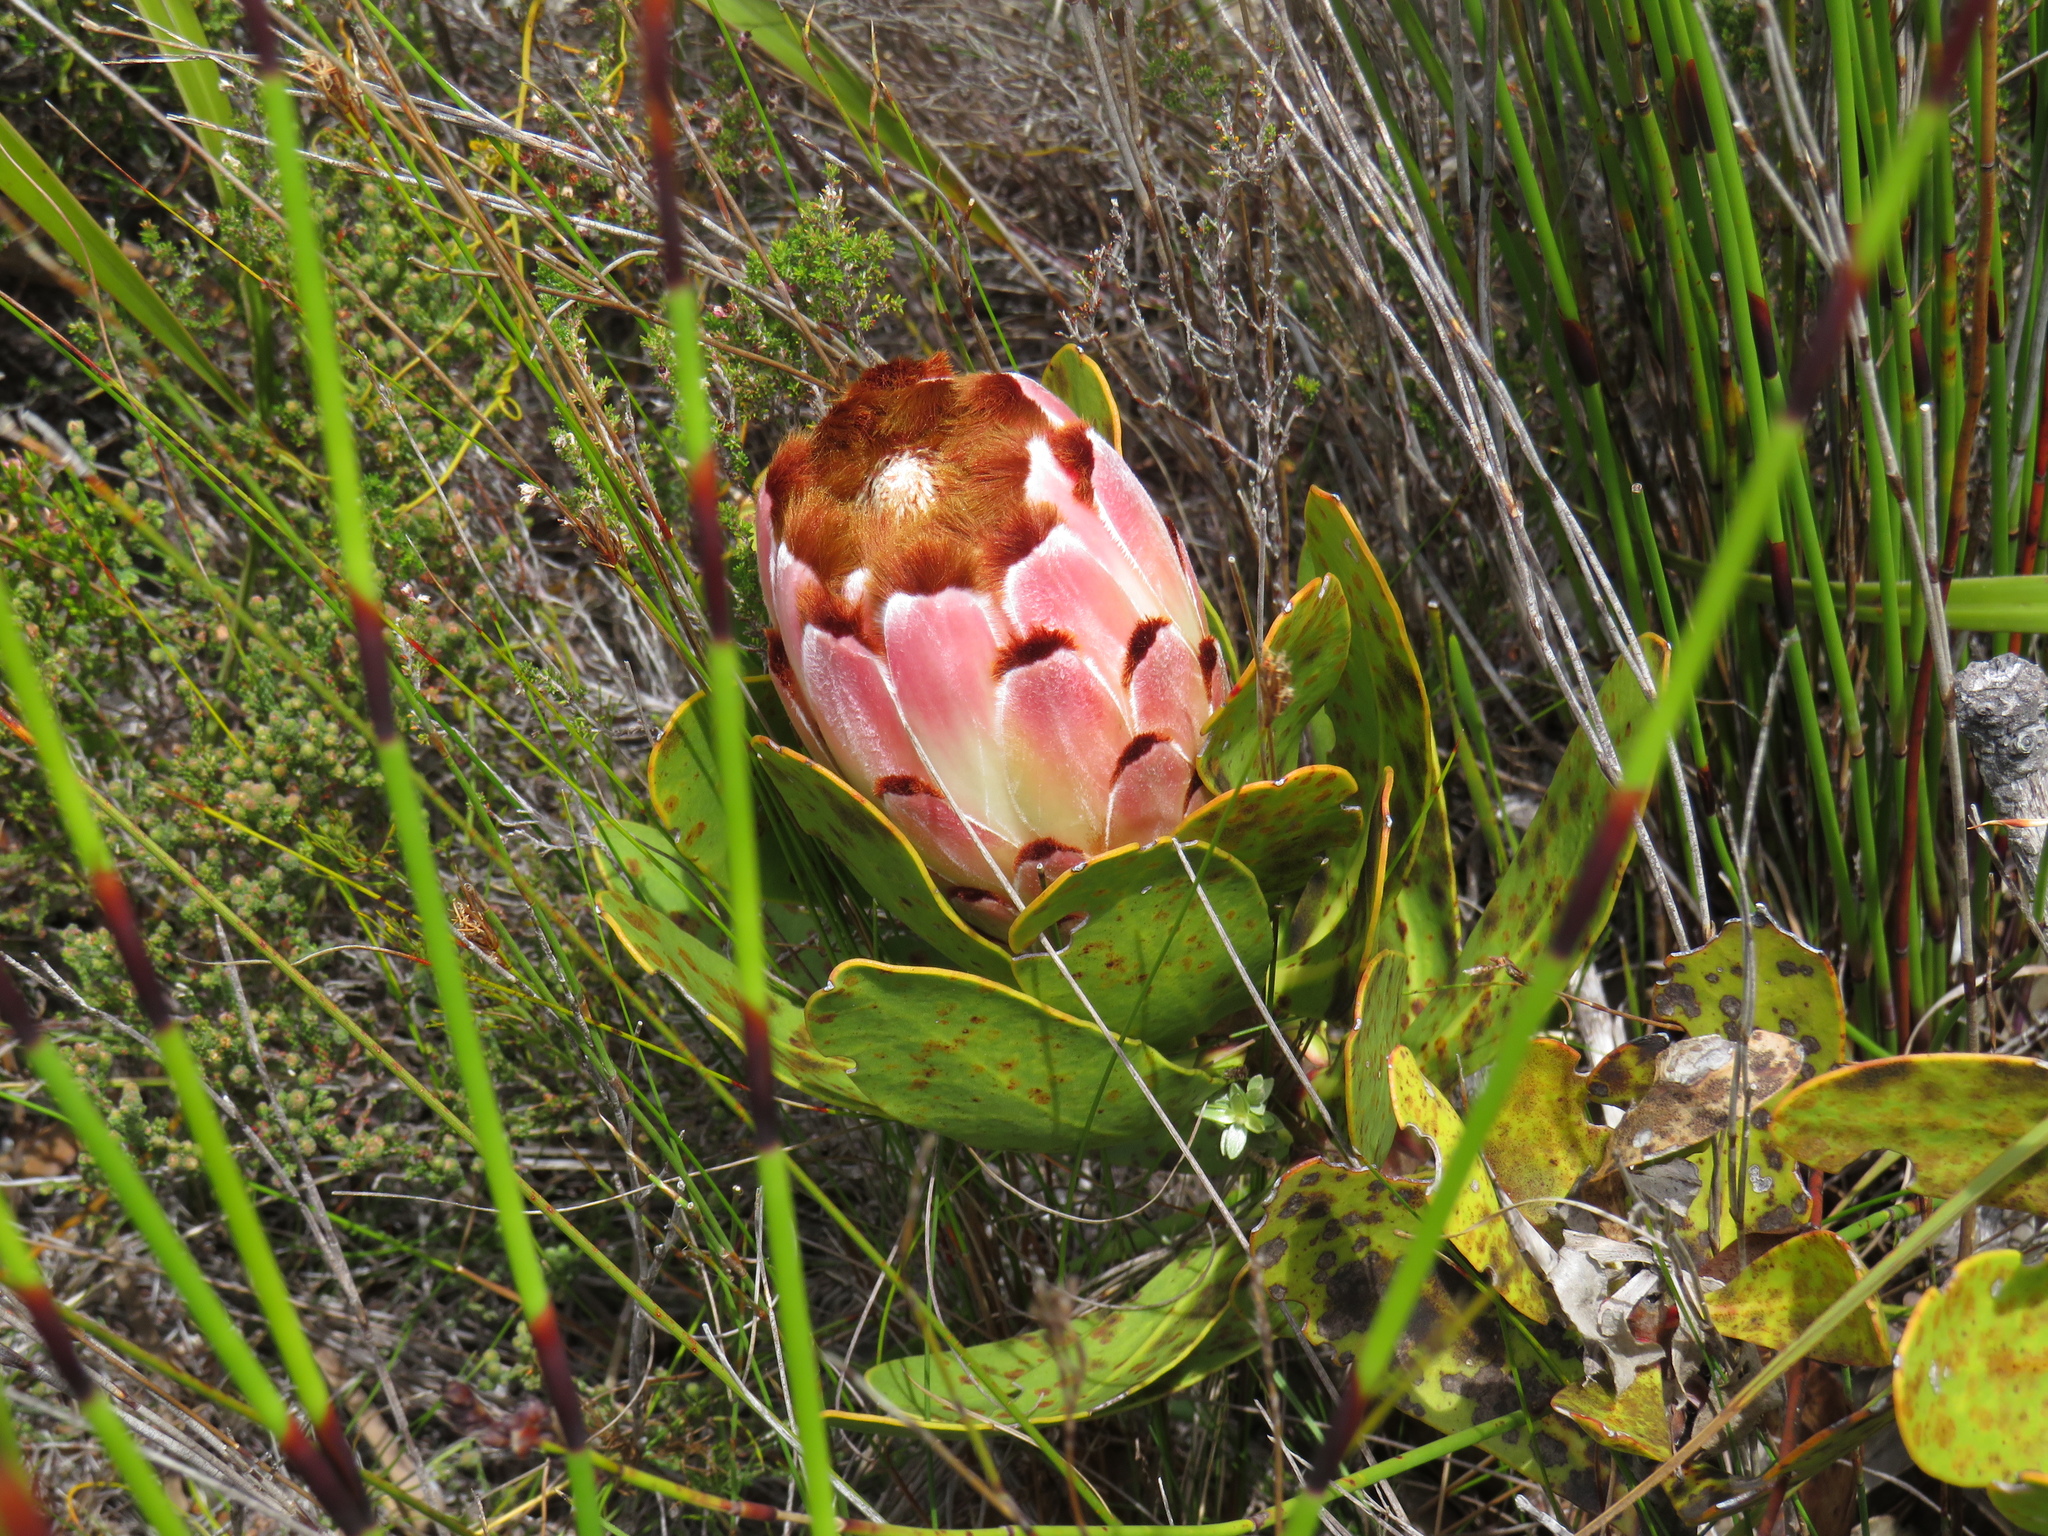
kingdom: Plantae
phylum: Tracheophyta
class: Magnoliopsida
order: Proteales
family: Proteaceae
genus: Protea
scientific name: Protea speciosa
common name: Brown-beard sugarbush
